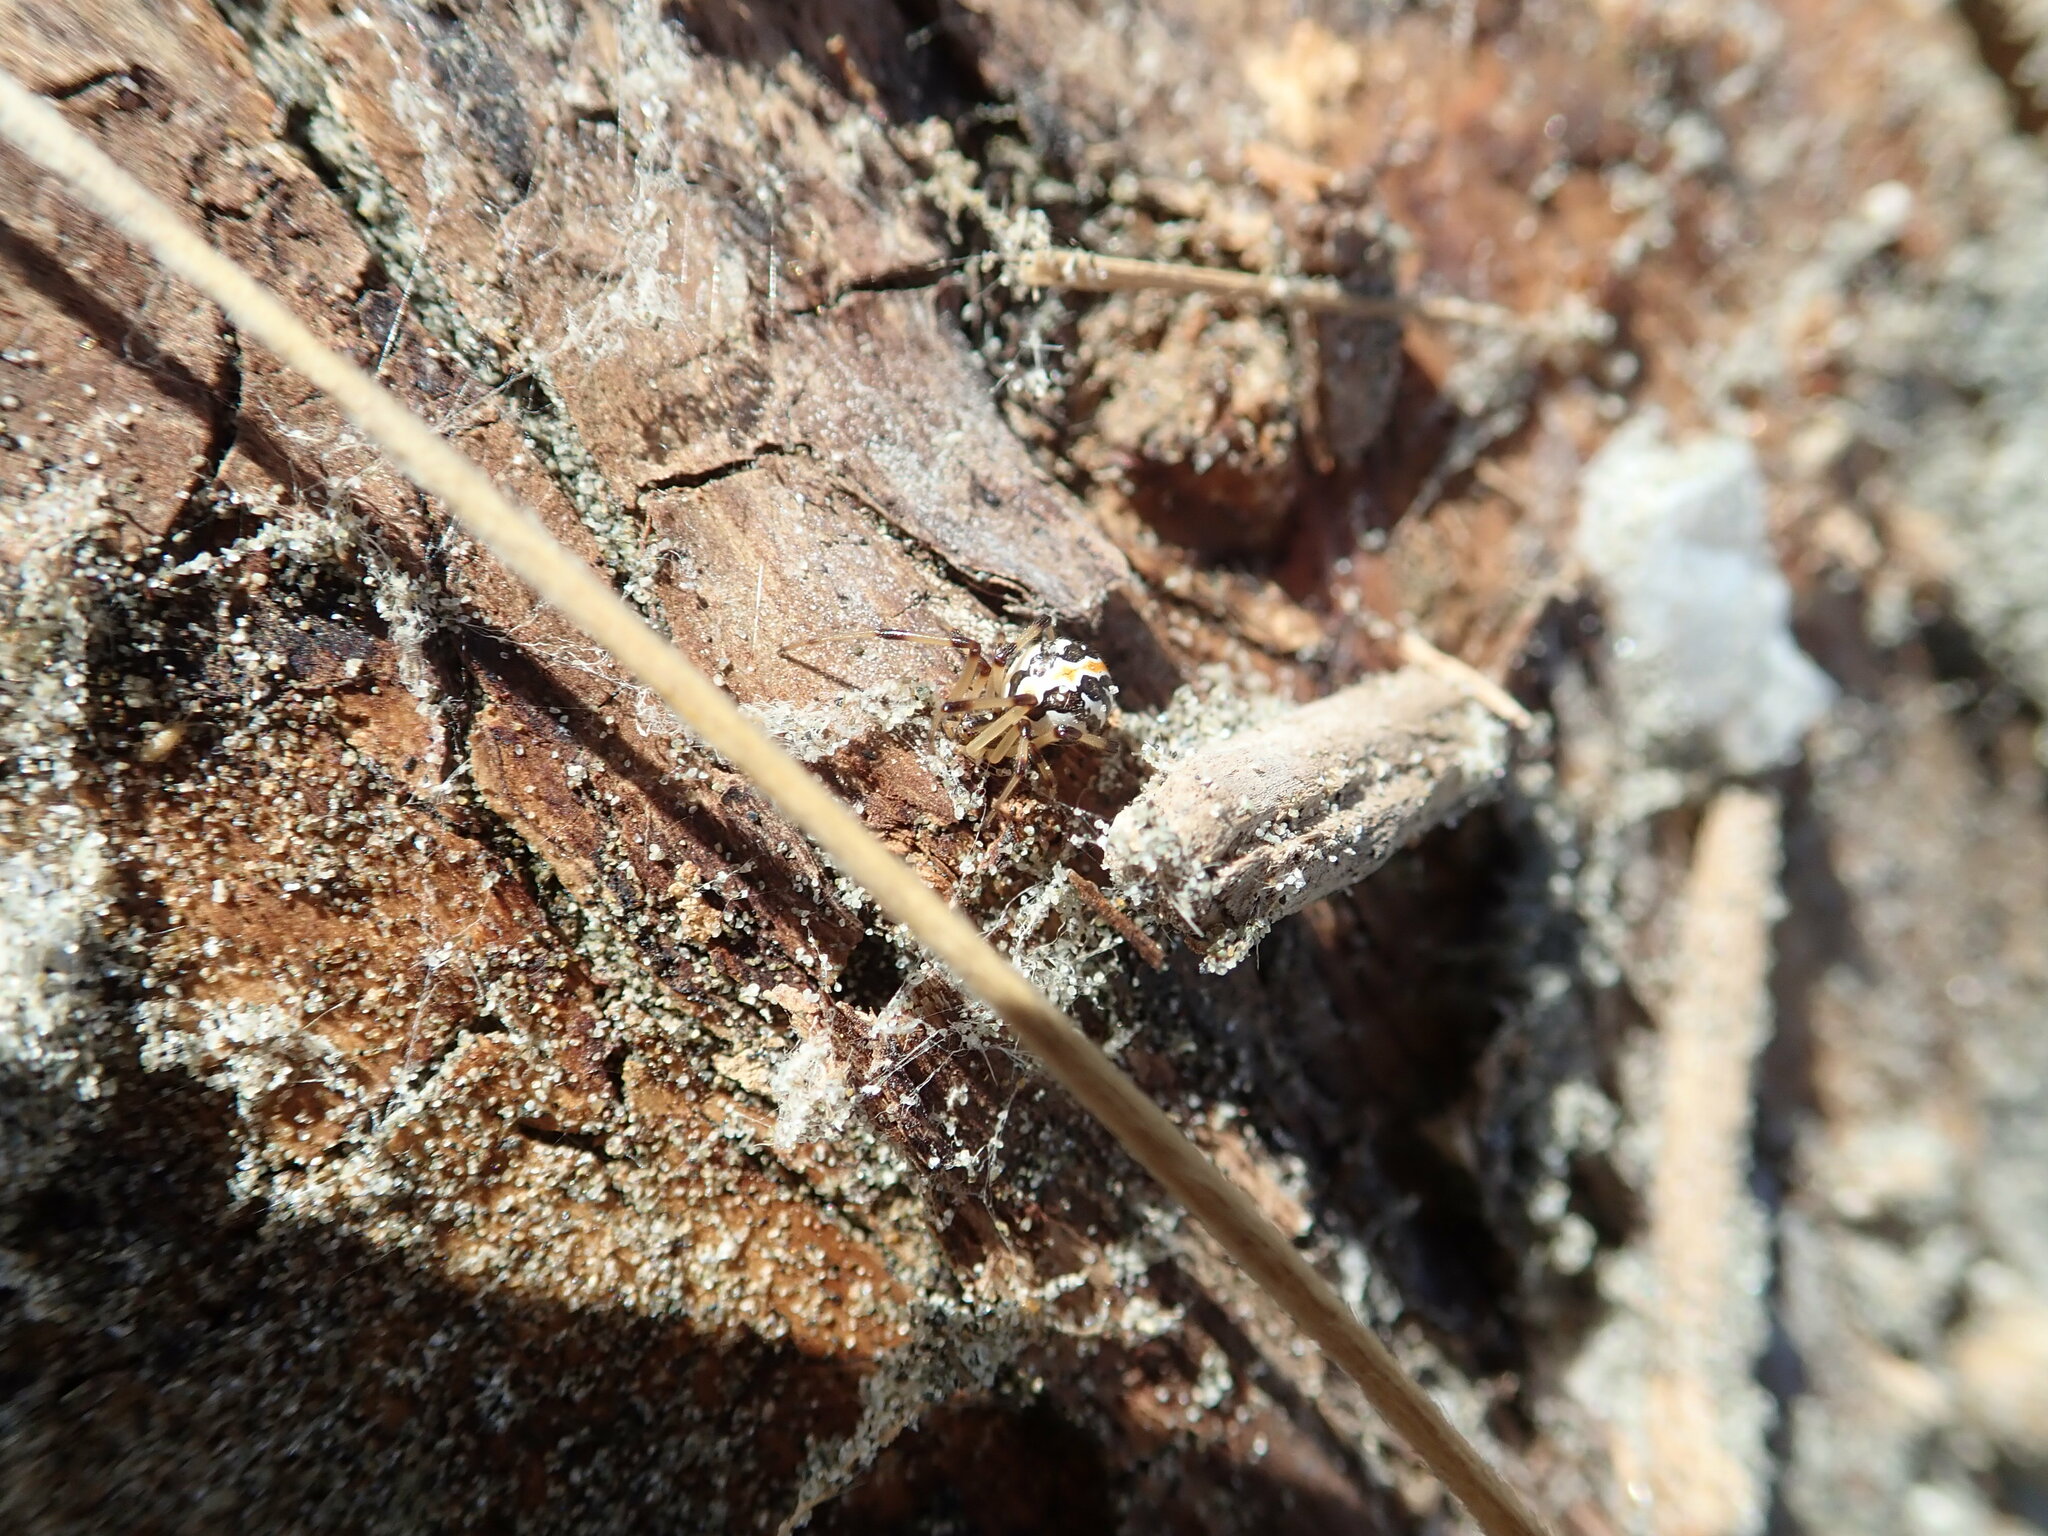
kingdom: Animalia
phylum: Arthropoda
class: Arachnida
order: Araneae
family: Theridiidae
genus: Latrodectus
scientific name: Latrodectus katipo
